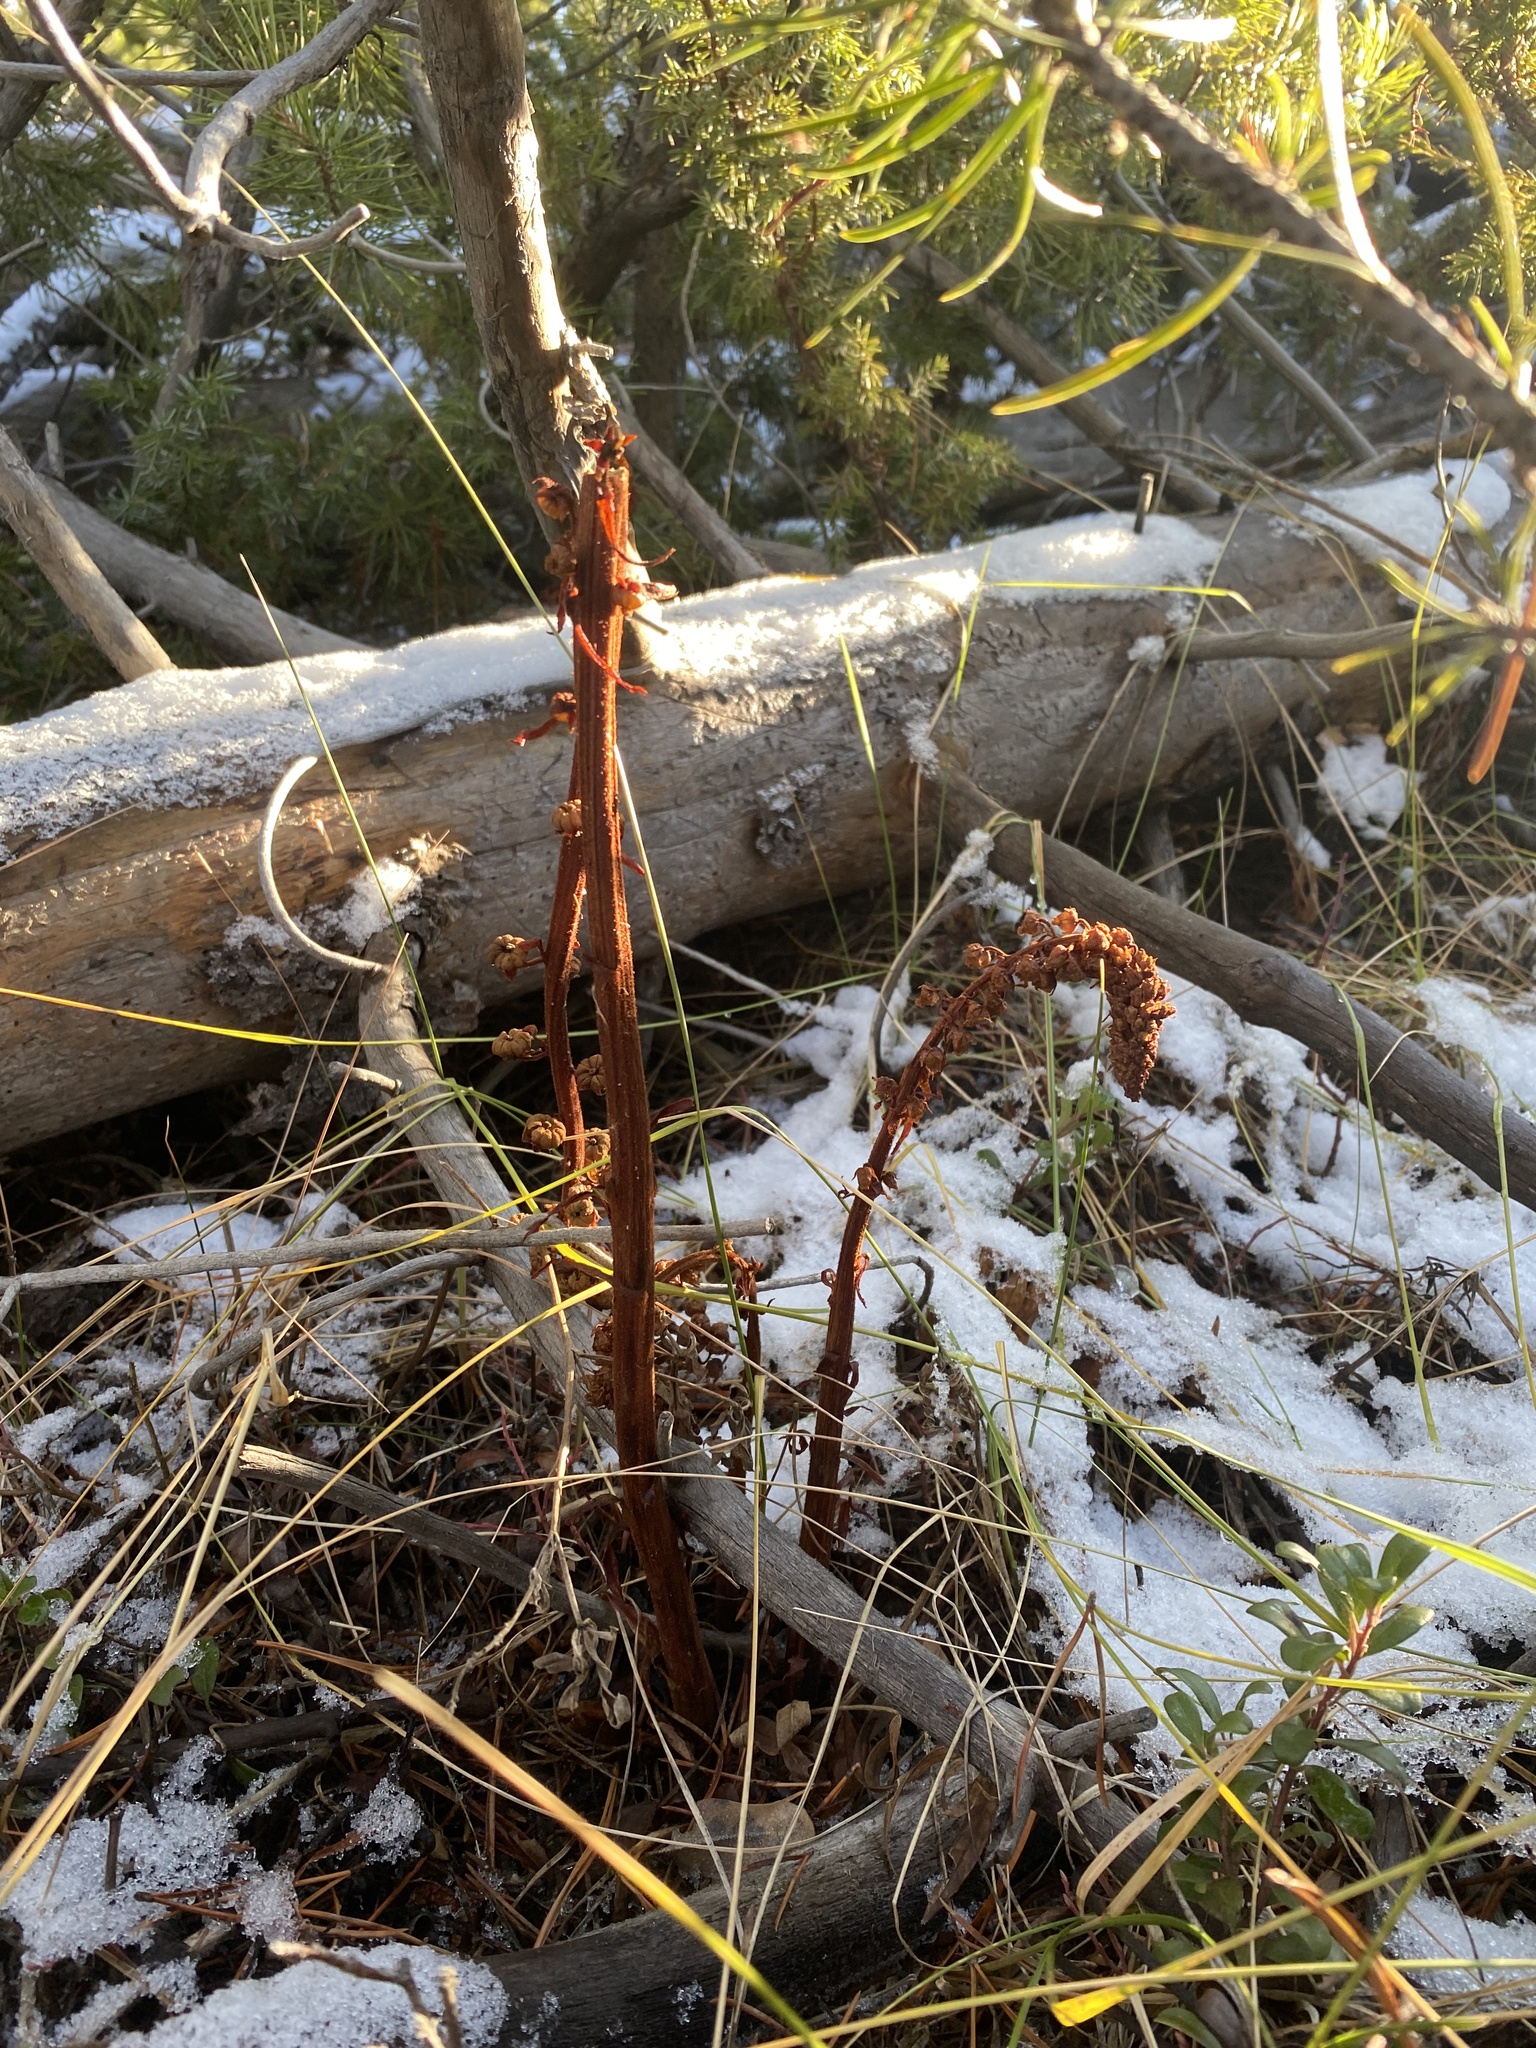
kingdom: Plantae
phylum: Tracheophyta
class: Magnoliopsida
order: Ericales
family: Ericaceae
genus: Pterospora
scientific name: Pterospora andromedea
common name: Giant bird's-nest
